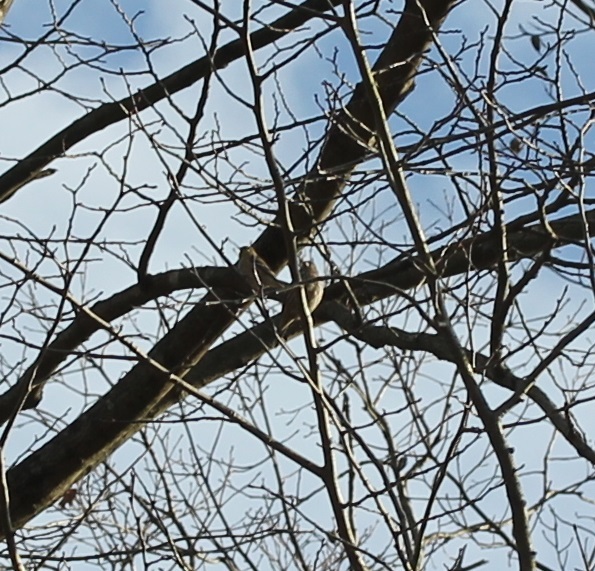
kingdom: Animalia
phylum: Chordata
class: Aves
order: Passeriformes
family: Fringillidae
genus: Spinus
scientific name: Spinus tristis
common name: American goldfinch
